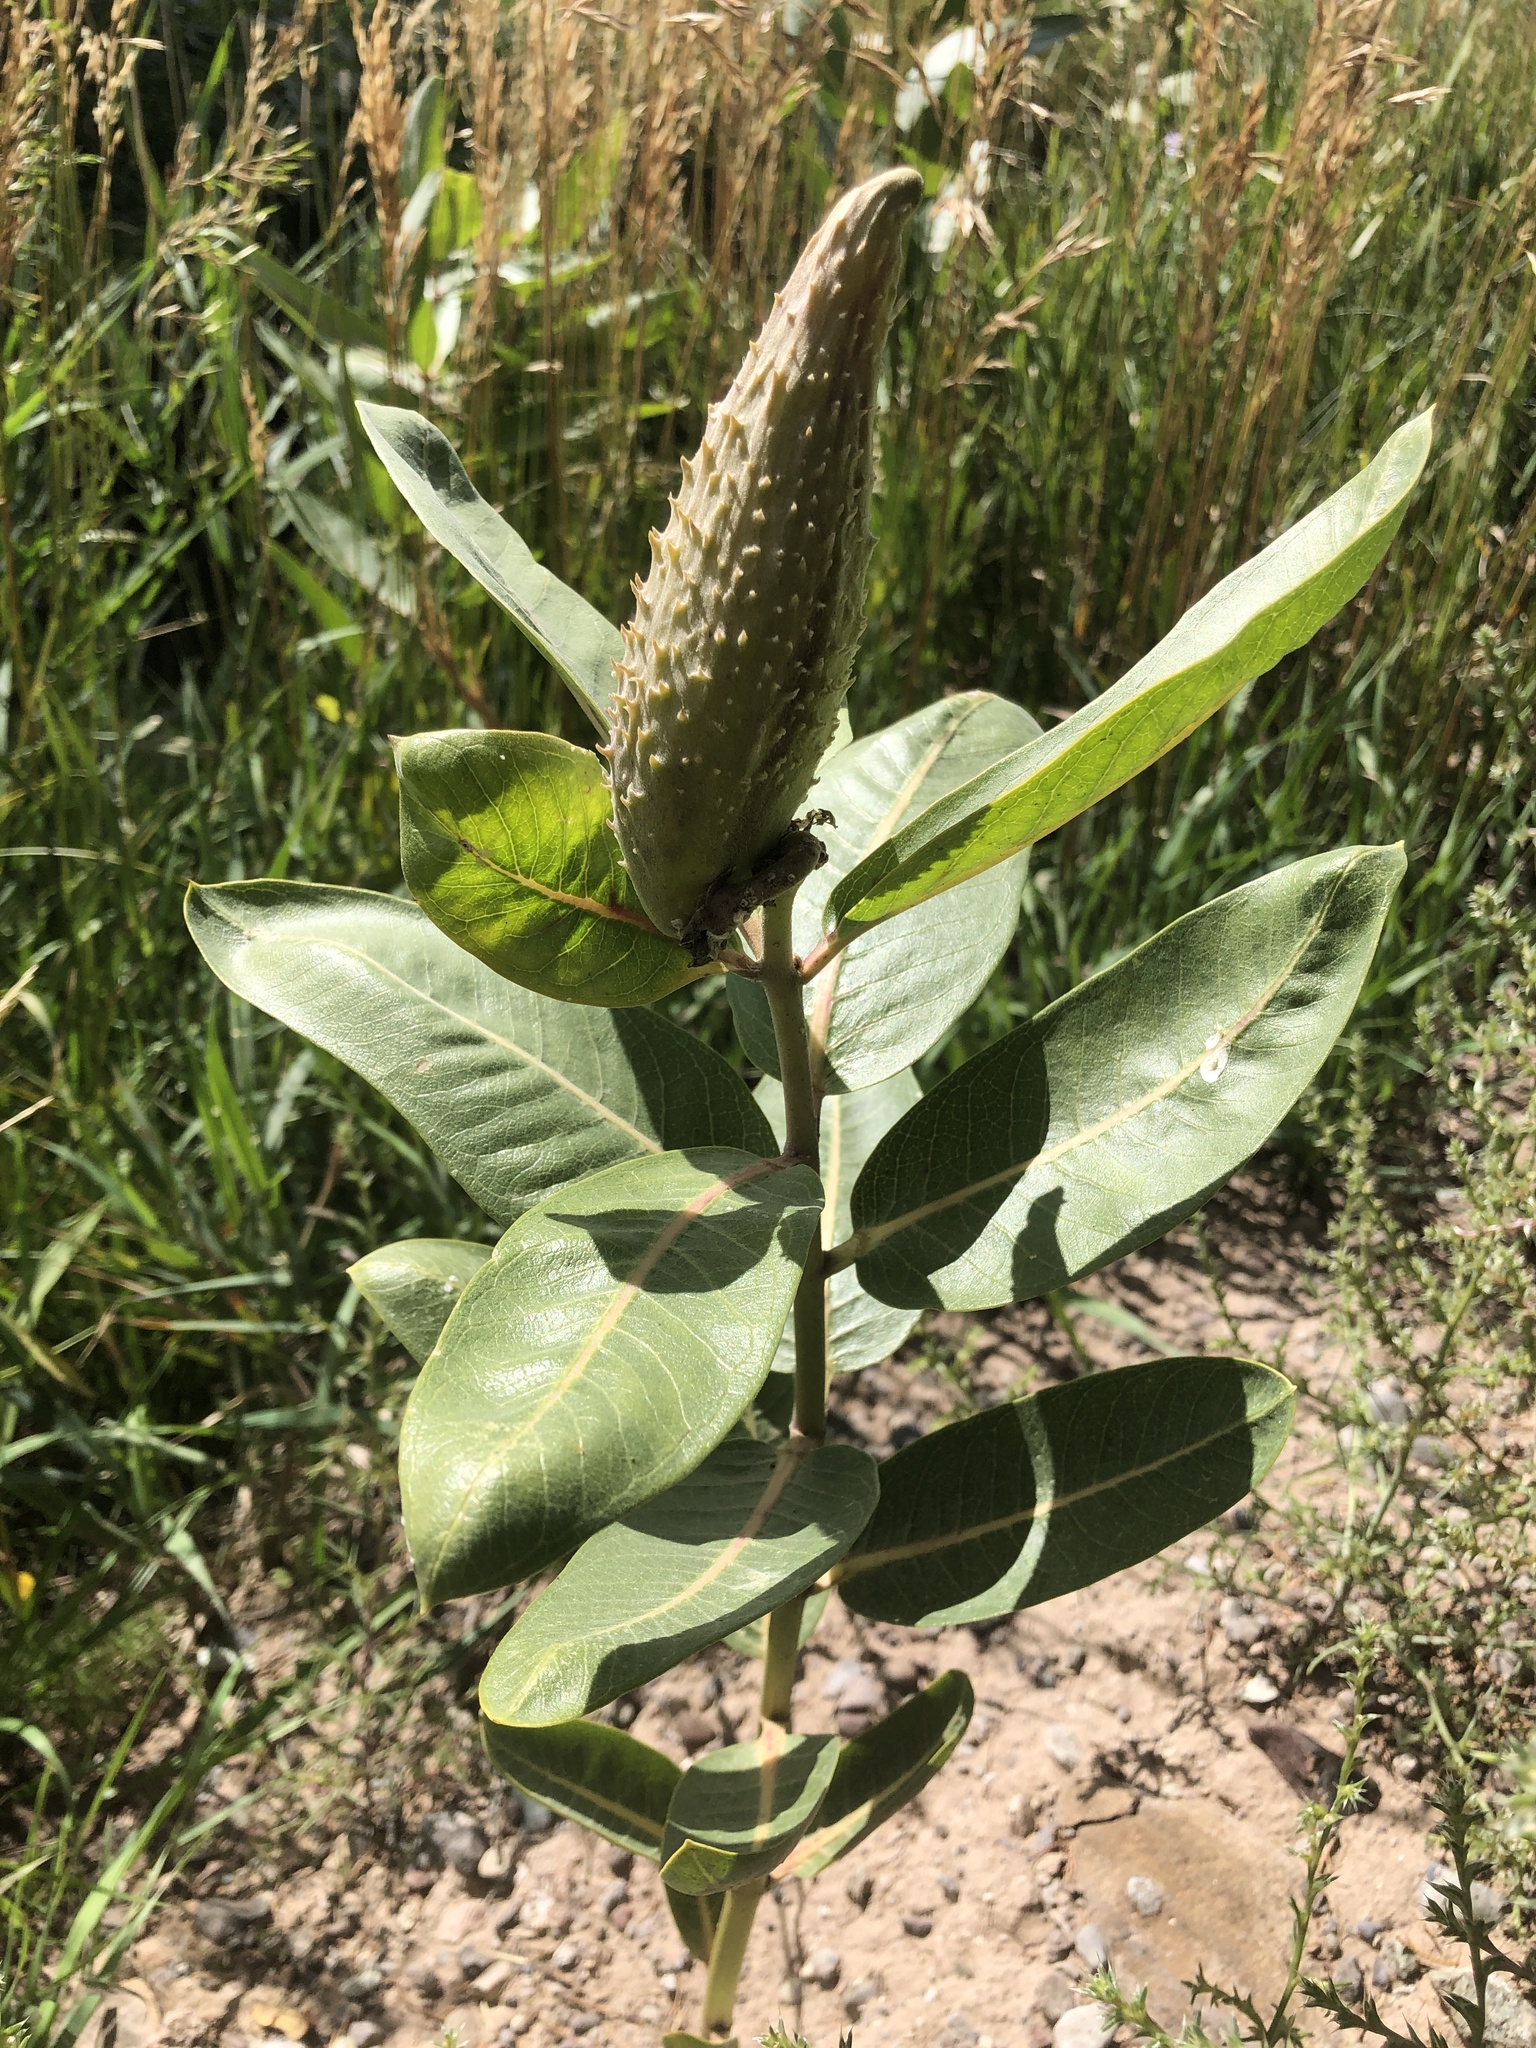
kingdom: Plantae
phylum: Tracheophyta
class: Magnoliopsida
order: Gentianales
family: Apocynaceae
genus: Asclepias
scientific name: Asclepias speciosa
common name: Showy milkweed
